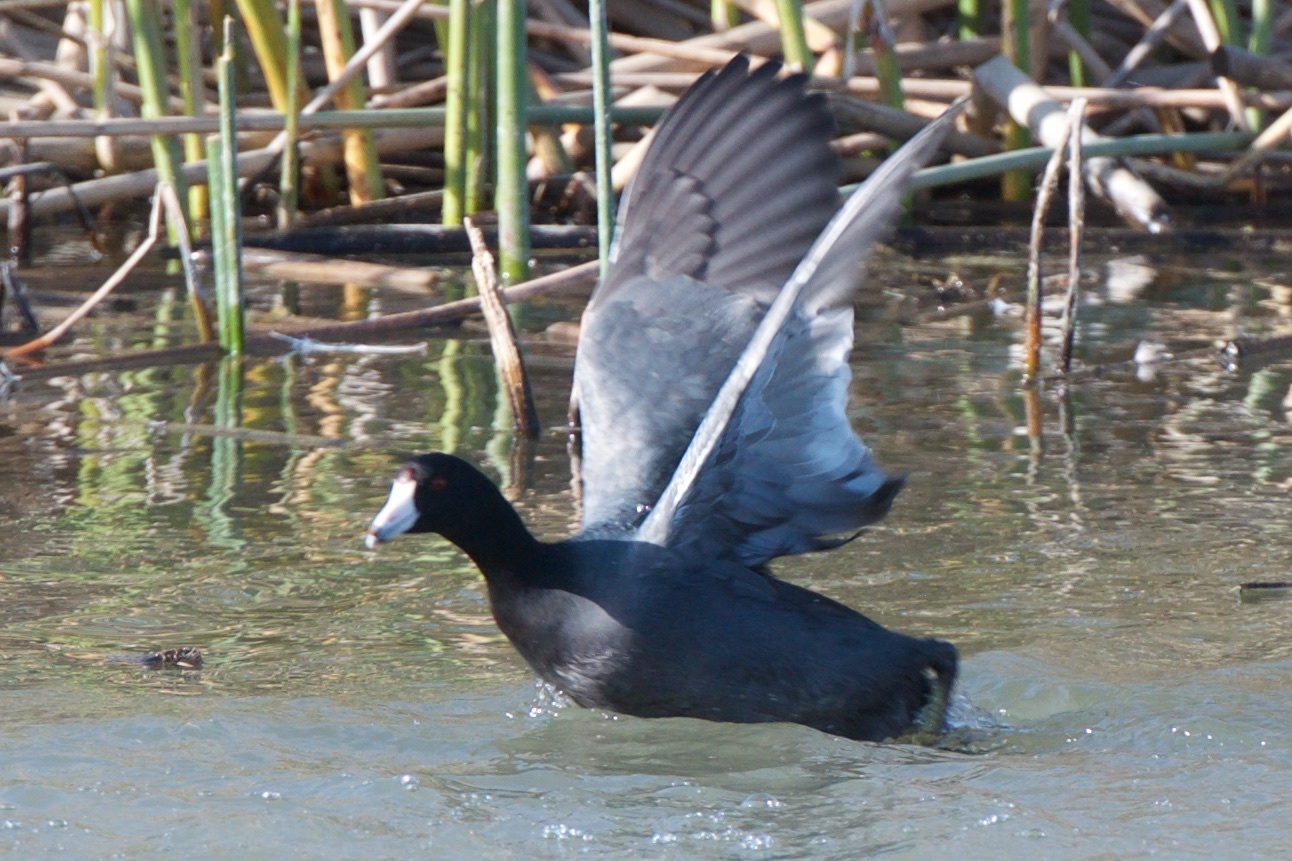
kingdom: Animalia
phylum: Chordata
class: Aves
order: Gruiformes
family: Rallidae
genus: Fulica
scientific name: Fulica americana
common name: American coot
